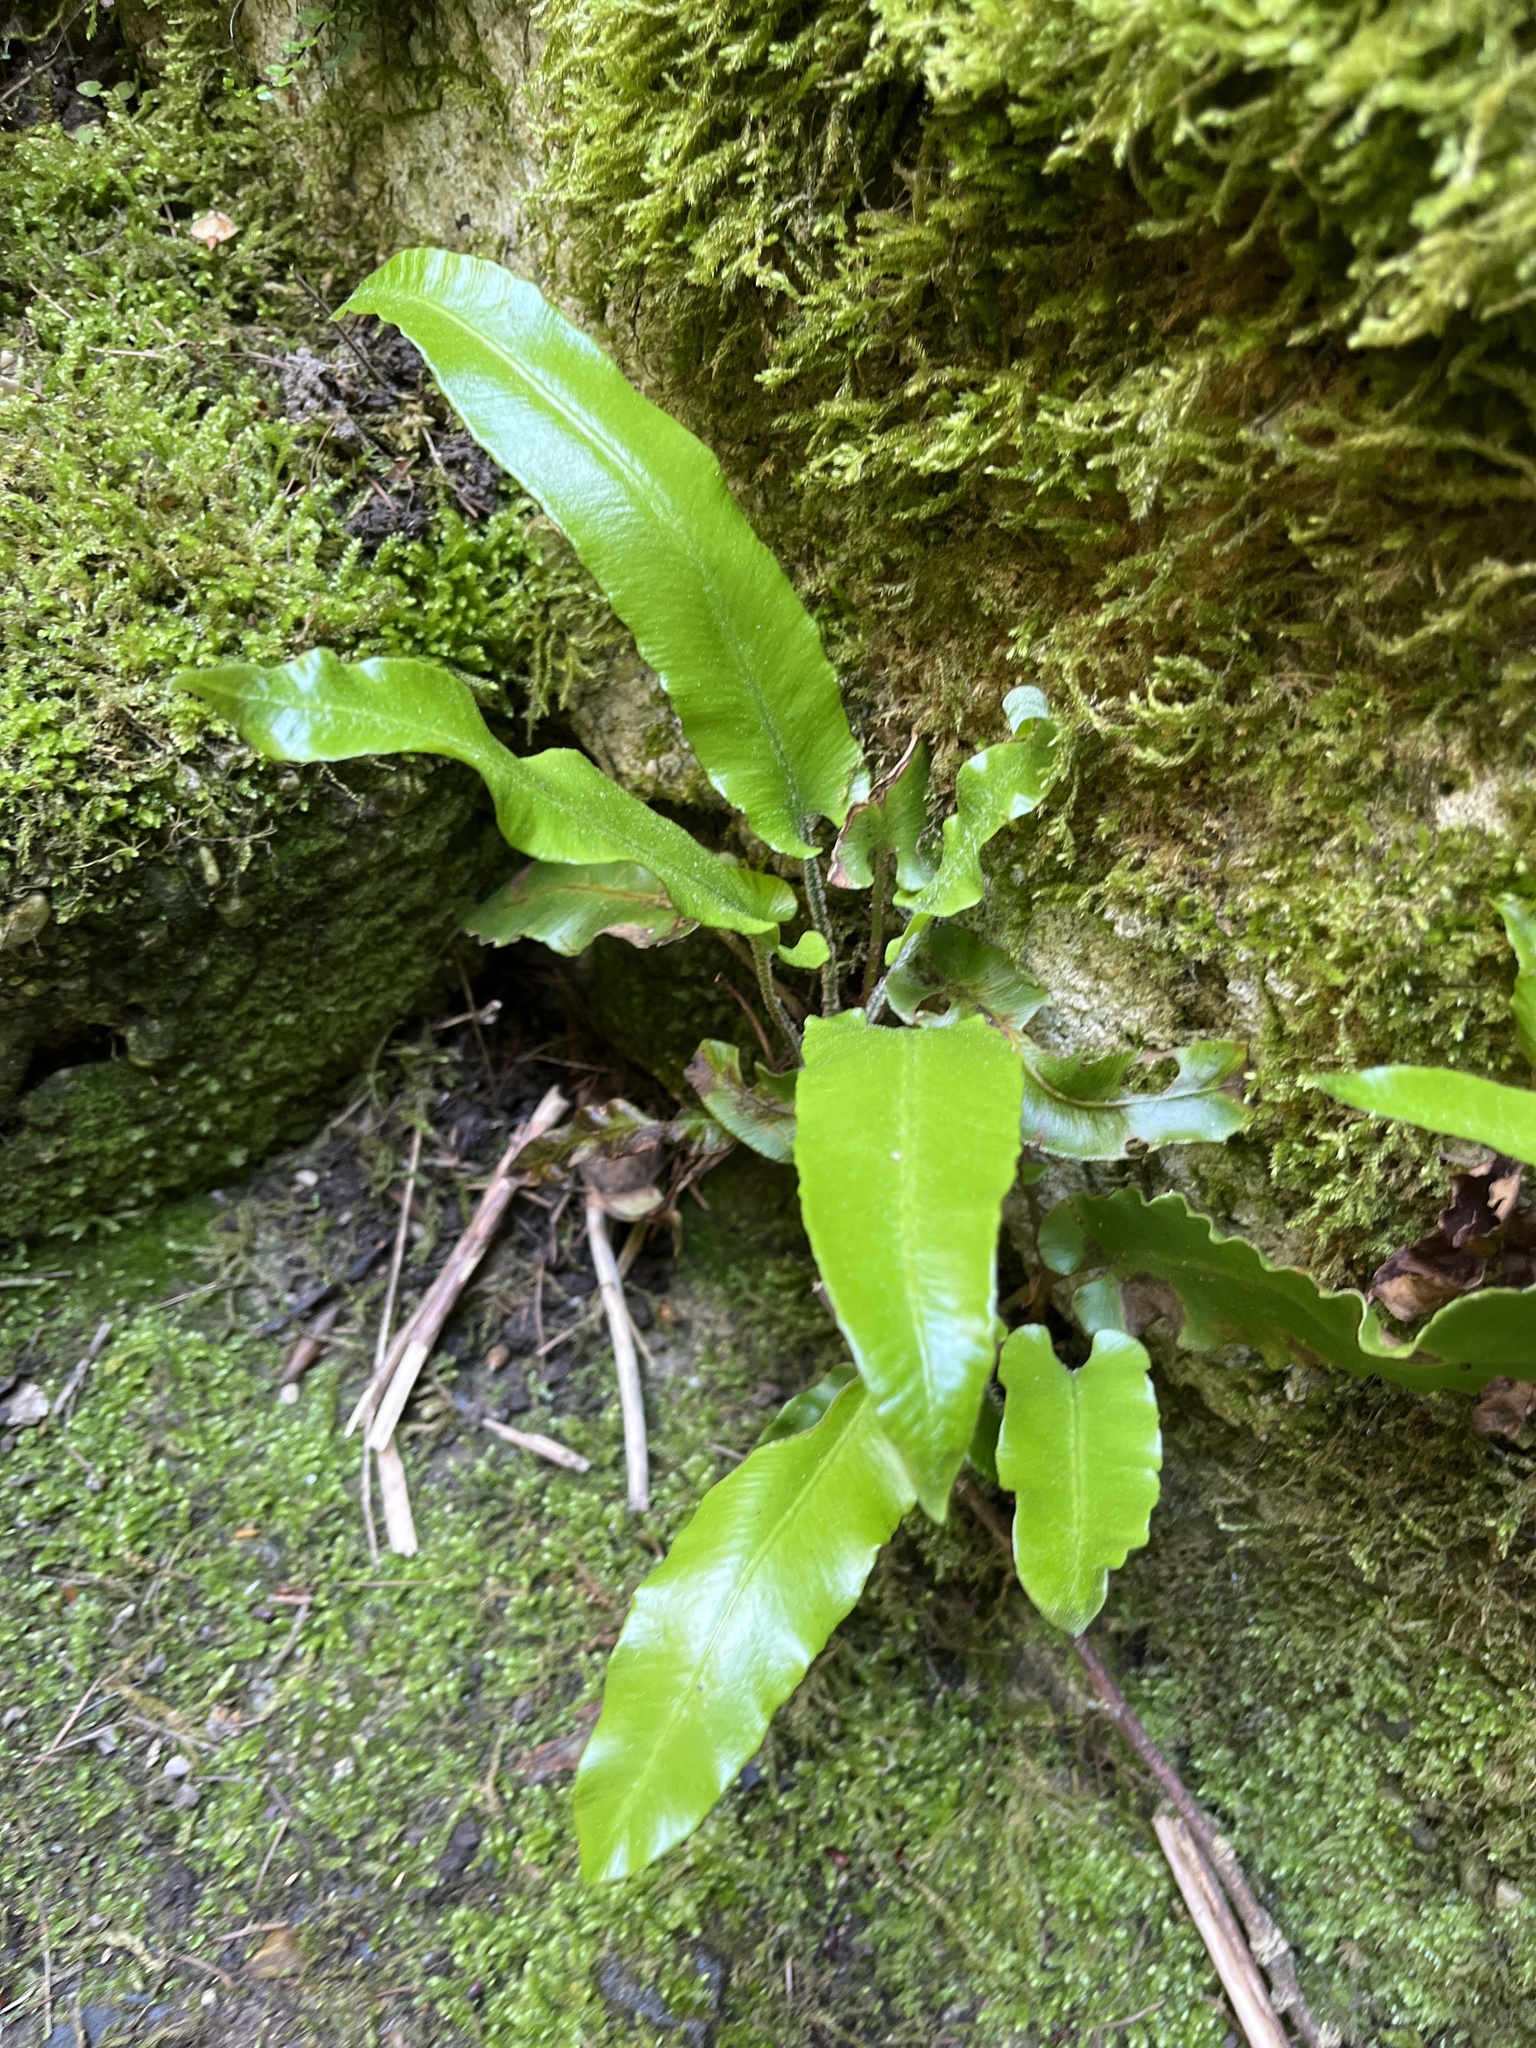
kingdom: Plantae
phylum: Tracheophyta
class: Polypodiopsida
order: Polypodiales
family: Aspleniaceae
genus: Asplenium
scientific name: Asplenium scolopendrium
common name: Hart's-tongue fern
